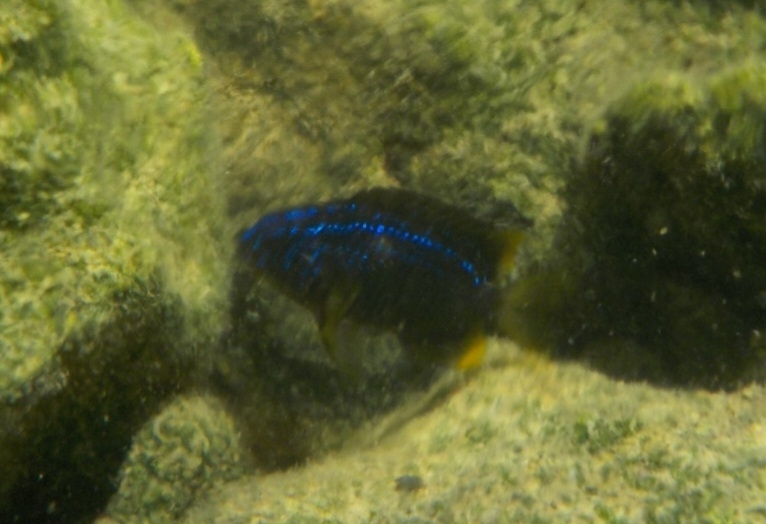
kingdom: Animalia
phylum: Chordata
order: Perciformes
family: Pomacentridae
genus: Stegastes
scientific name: Stegastes otophorus
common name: Freshwater gregory
